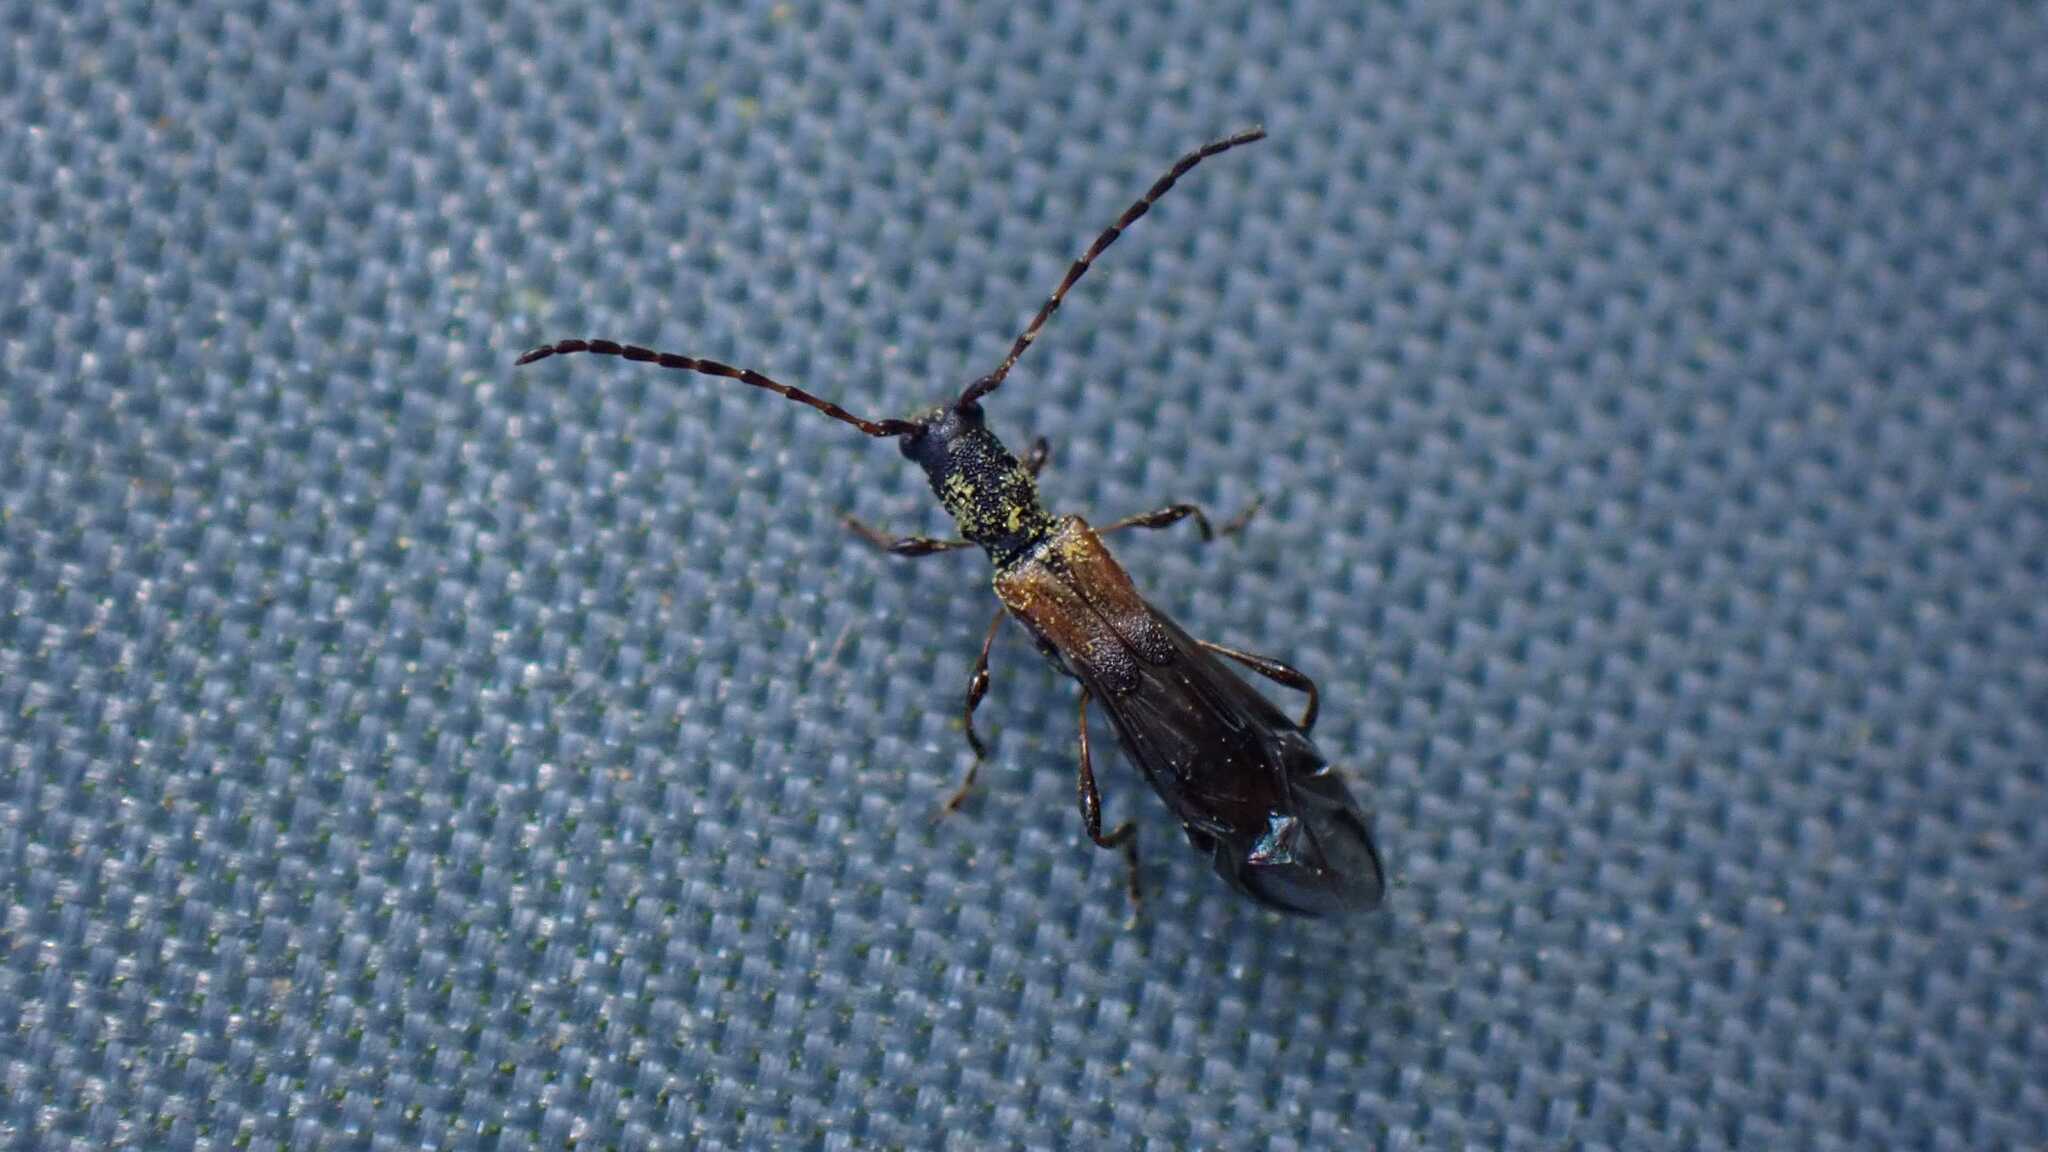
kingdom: Animalia
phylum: Arthropoda
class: Insecta
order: Coleoptera
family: Cerambycidae
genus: Molorchus
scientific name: Molorchus umbellatarum
